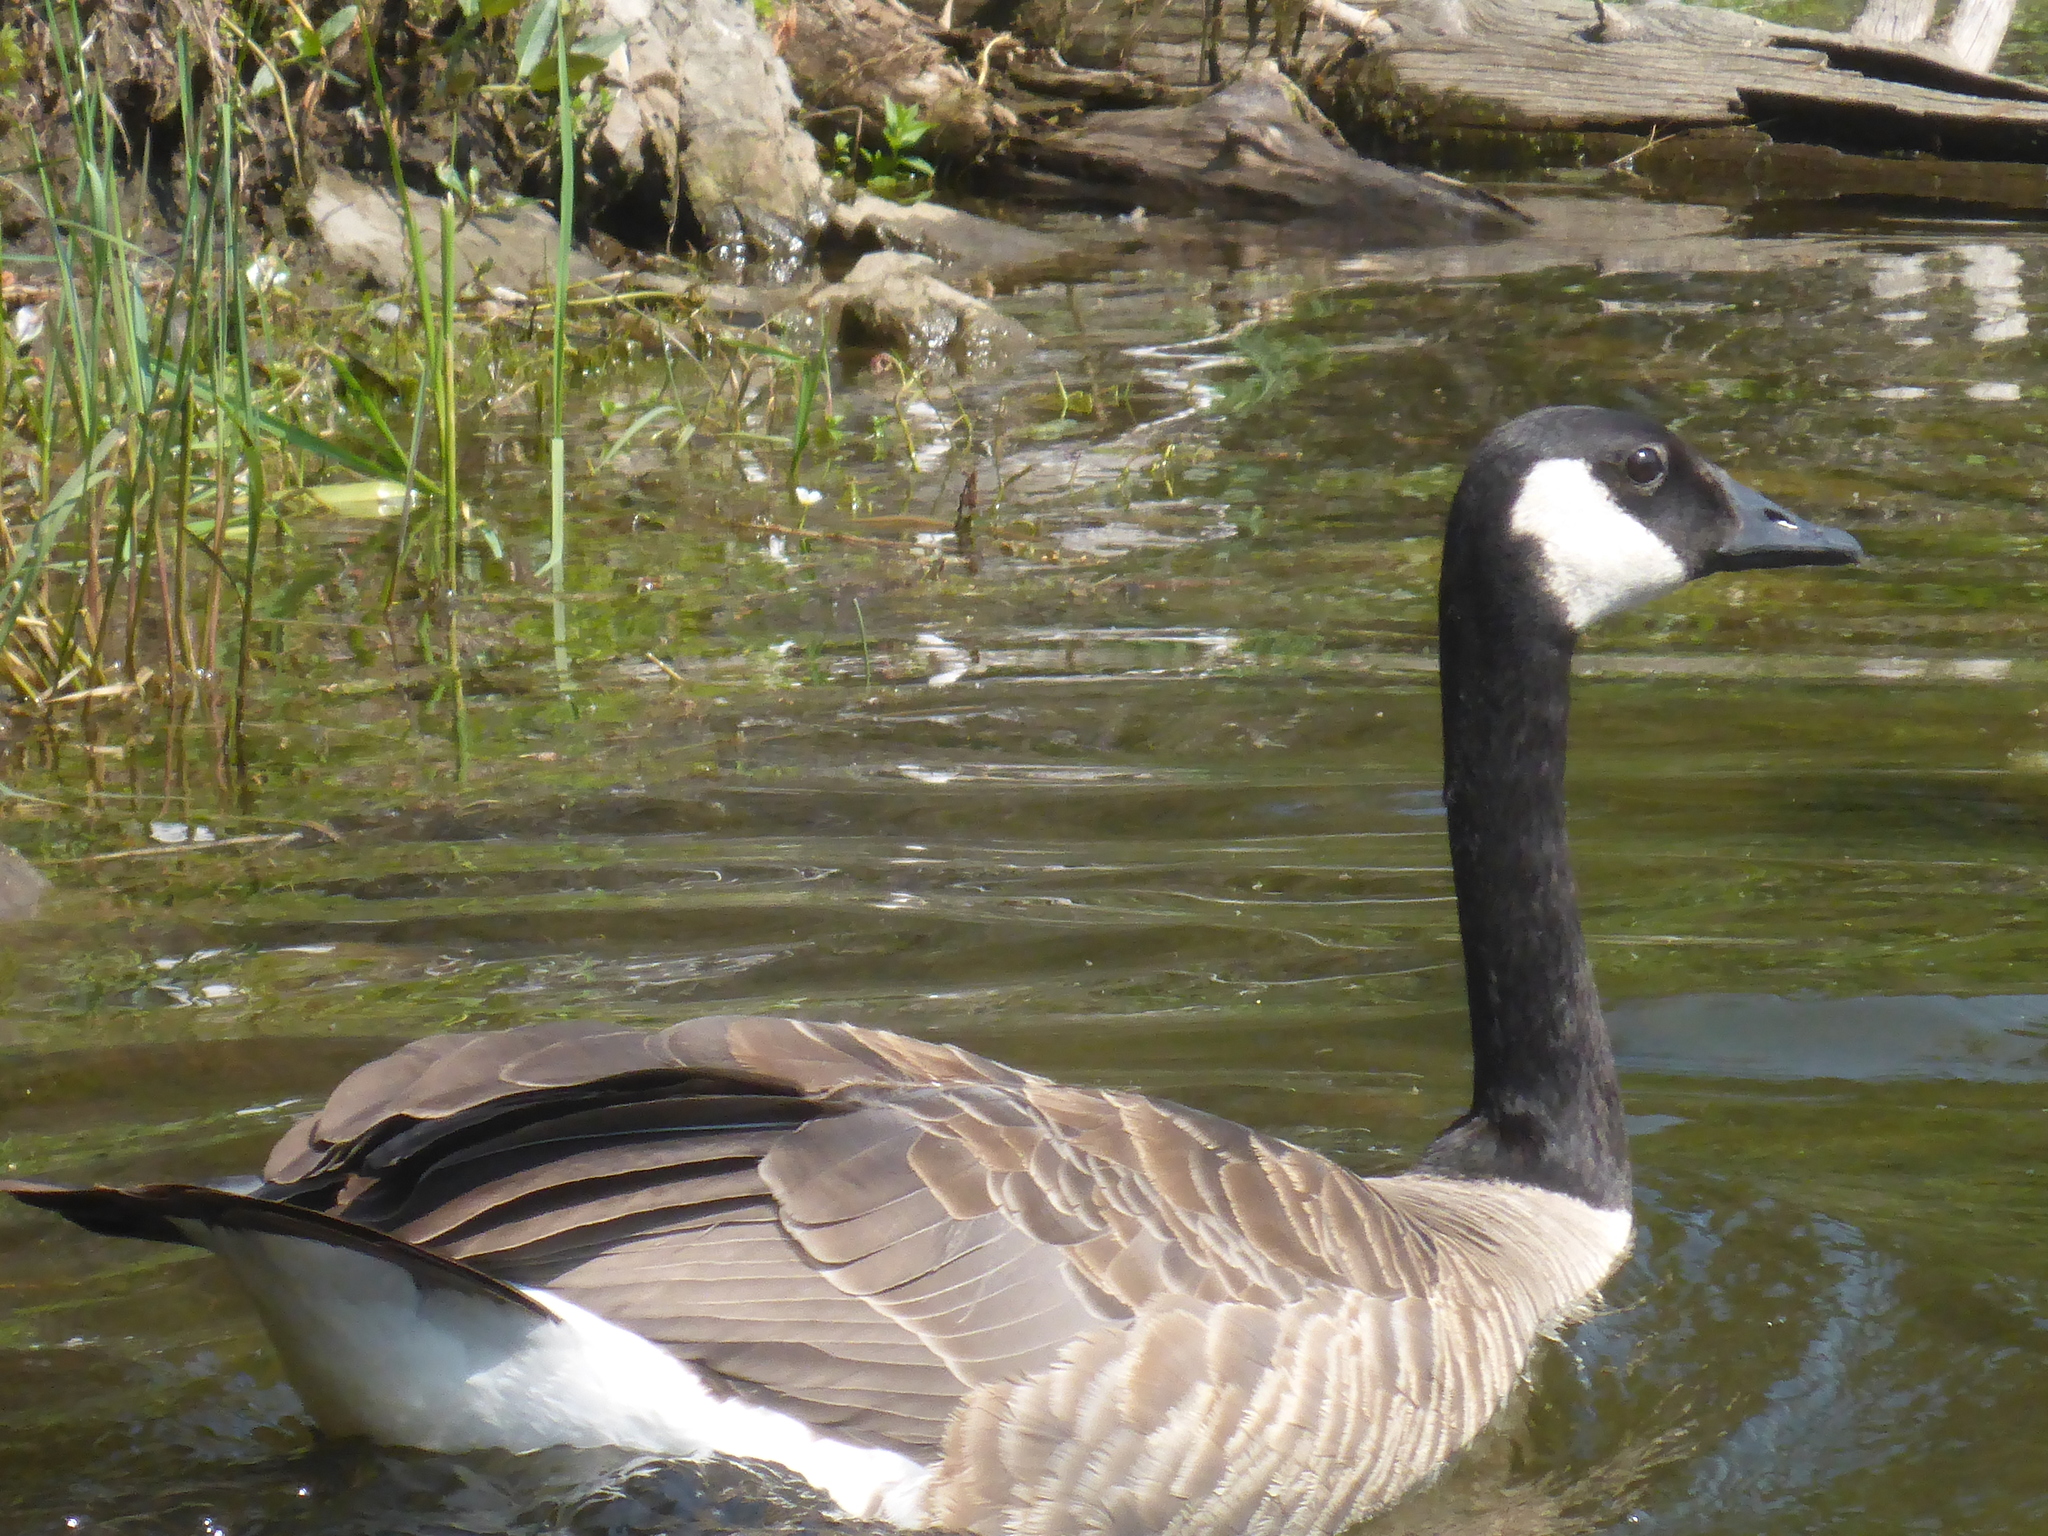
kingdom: Animalia
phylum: Chordata
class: Aves
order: Anseriformes
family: Anatidae
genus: Branta
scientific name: Branta canadensis
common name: Canada goose
